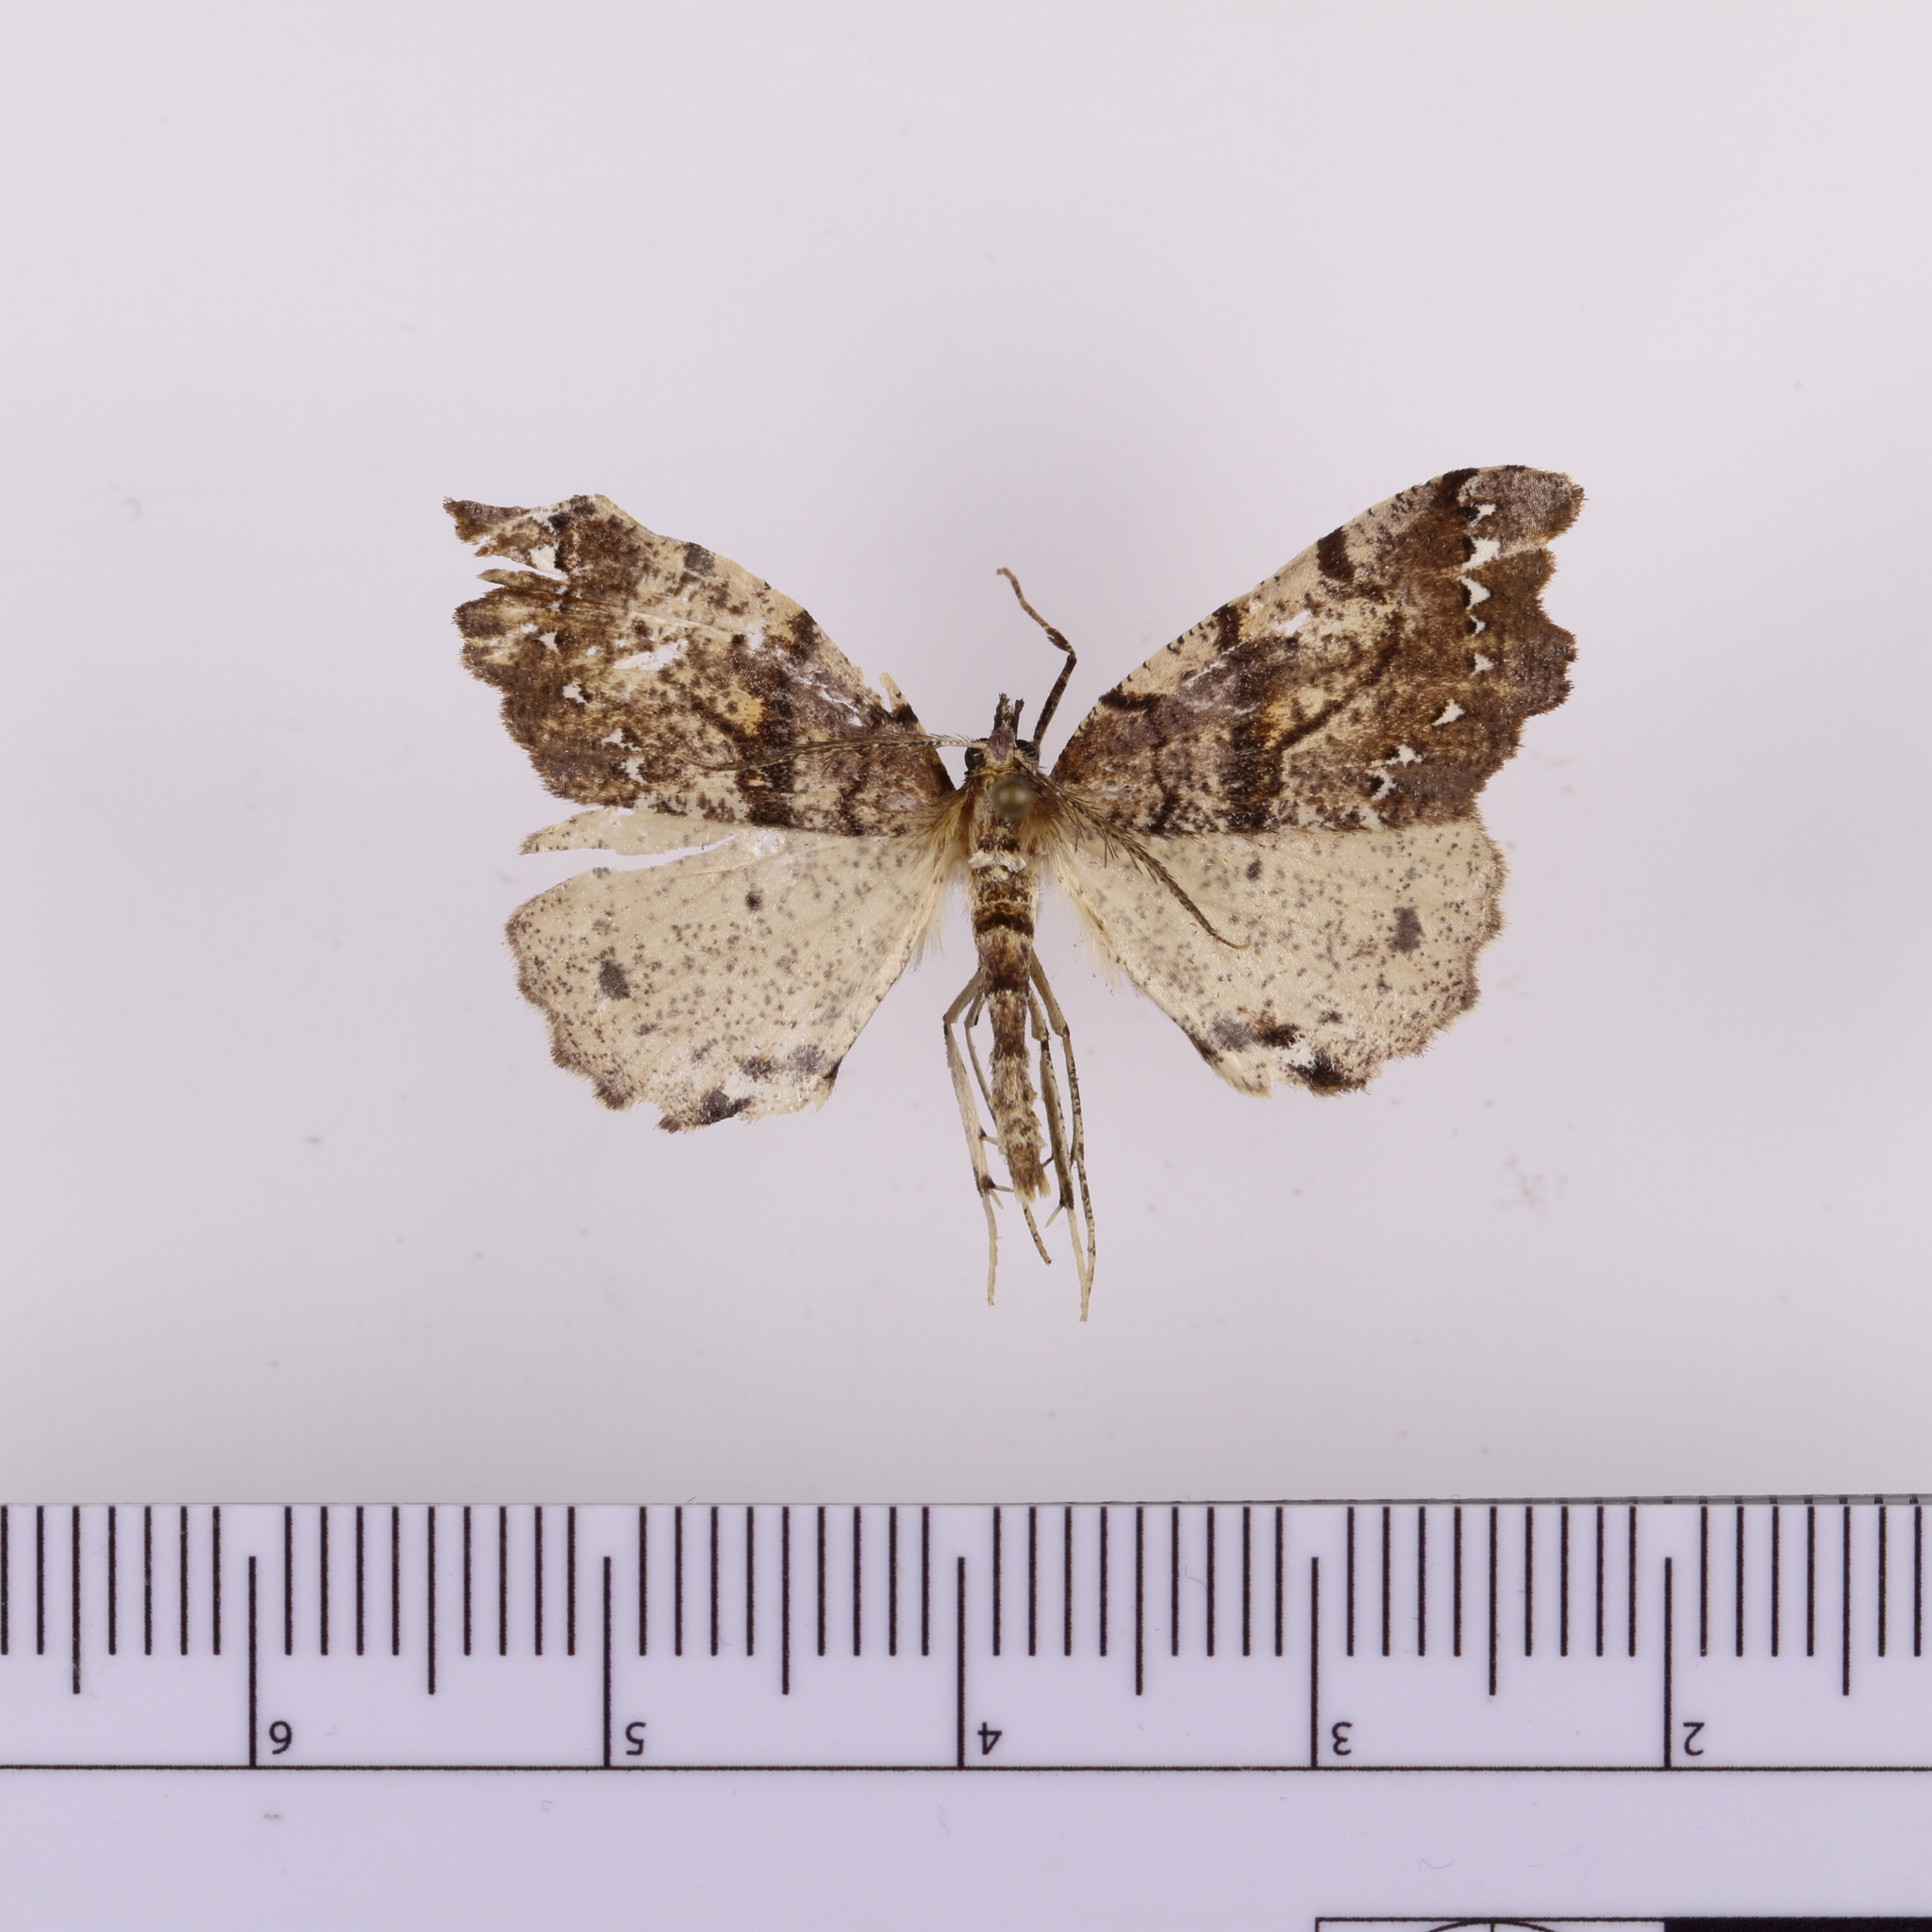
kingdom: Animalia
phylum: Arthropoda
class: Insecta
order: Lepidoptera
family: Geometridae
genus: Chalastra
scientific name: Chalastra pellurgata
